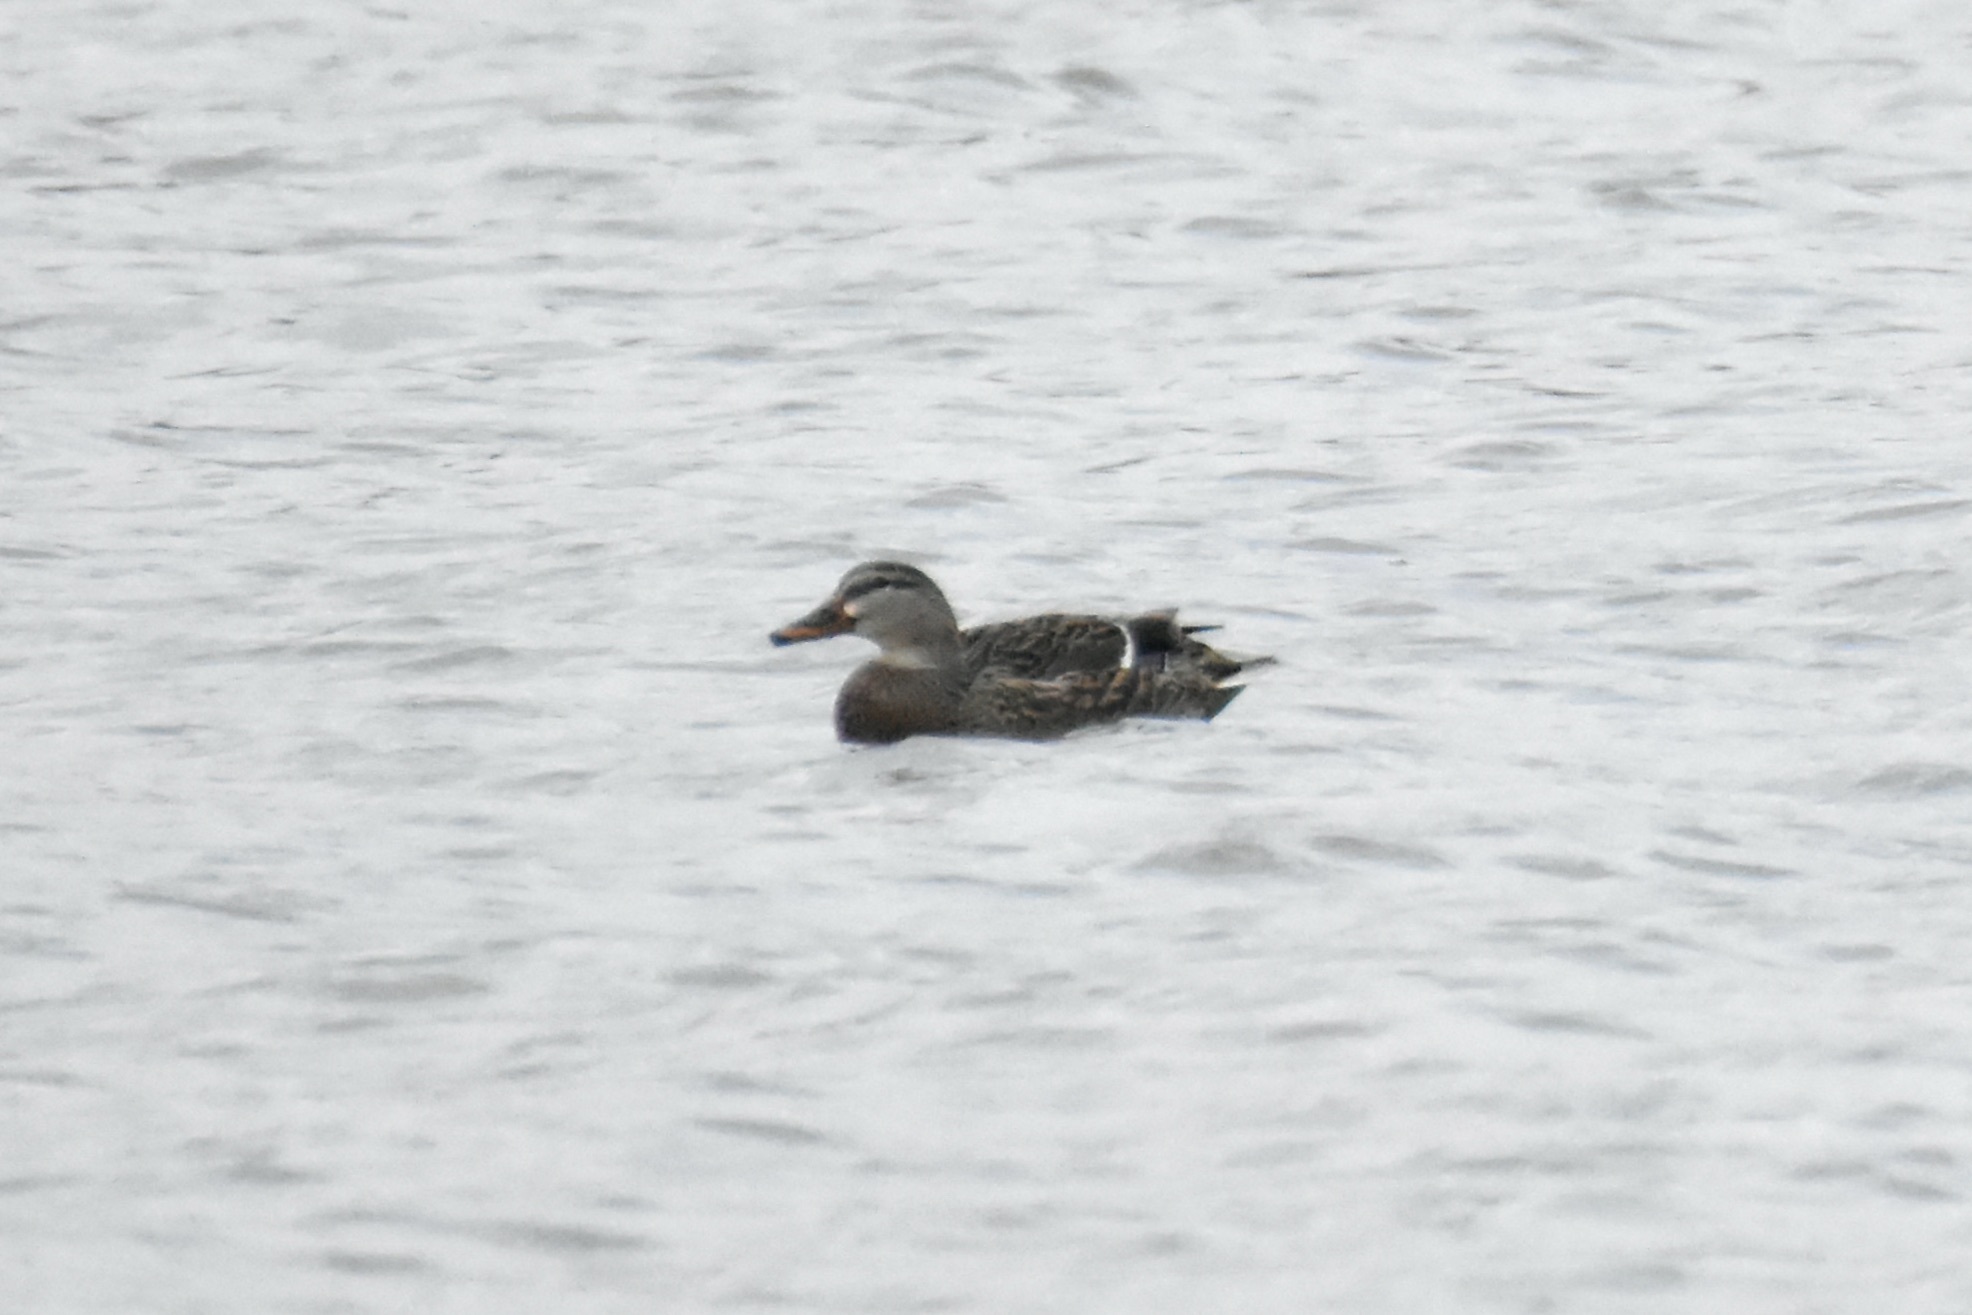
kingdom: Animalia
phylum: Chordata
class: Aves
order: Anseriformes
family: Anatidae
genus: Anas
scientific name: Anas platyrhynchos
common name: Mallard
